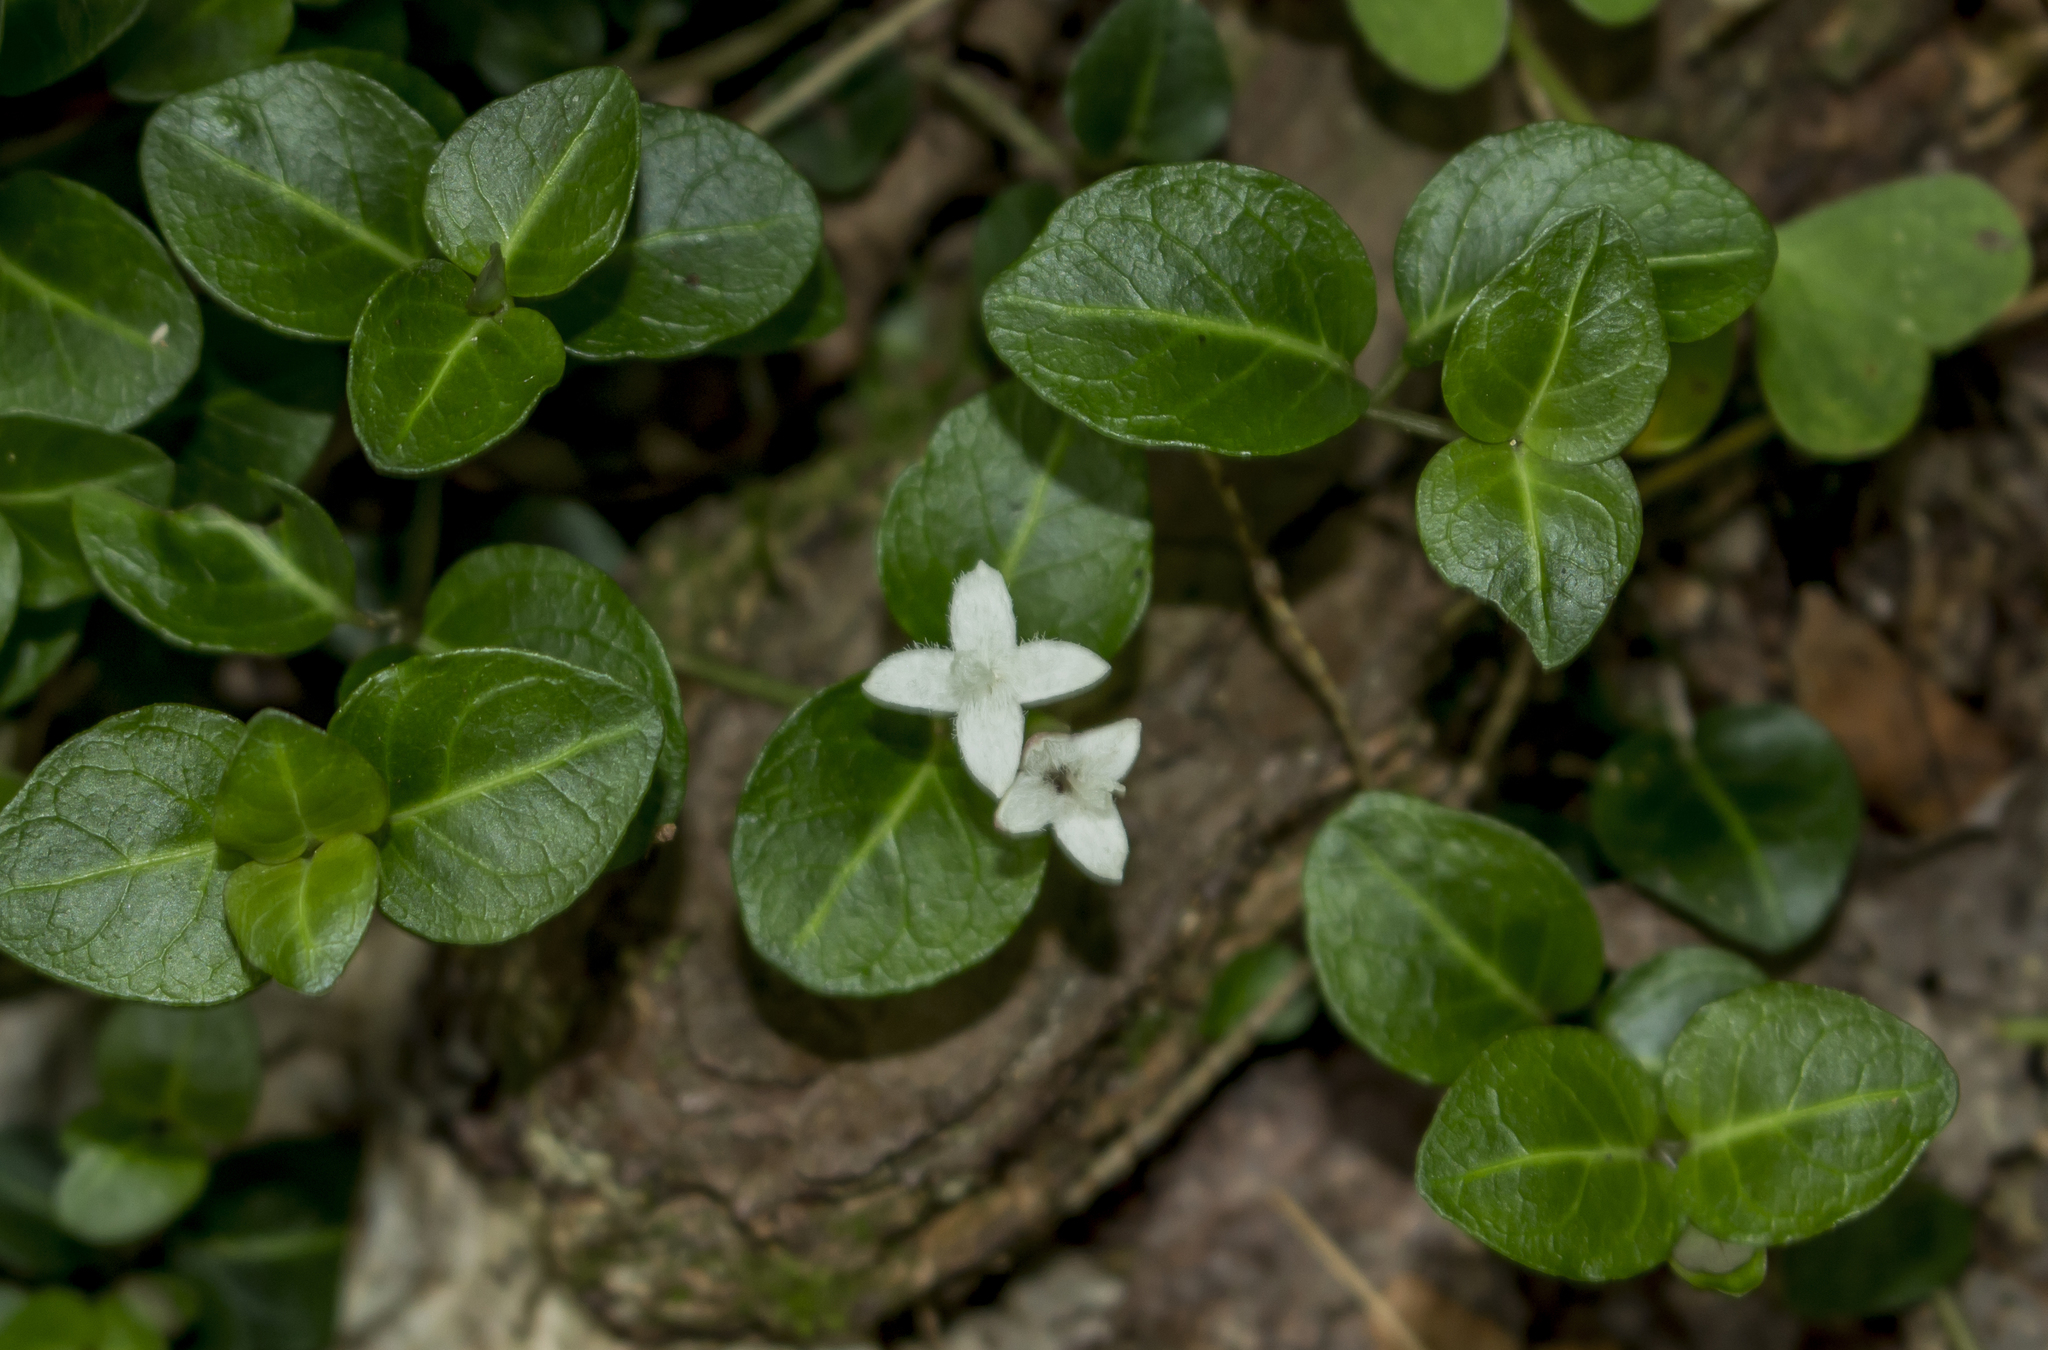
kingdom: Plantae
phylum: Tracheophyta
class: Magnoliopsida
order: Gentianales
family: Rubiaceae
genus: Mitchella
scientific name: Mitchella repens
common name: Partridge-berry
